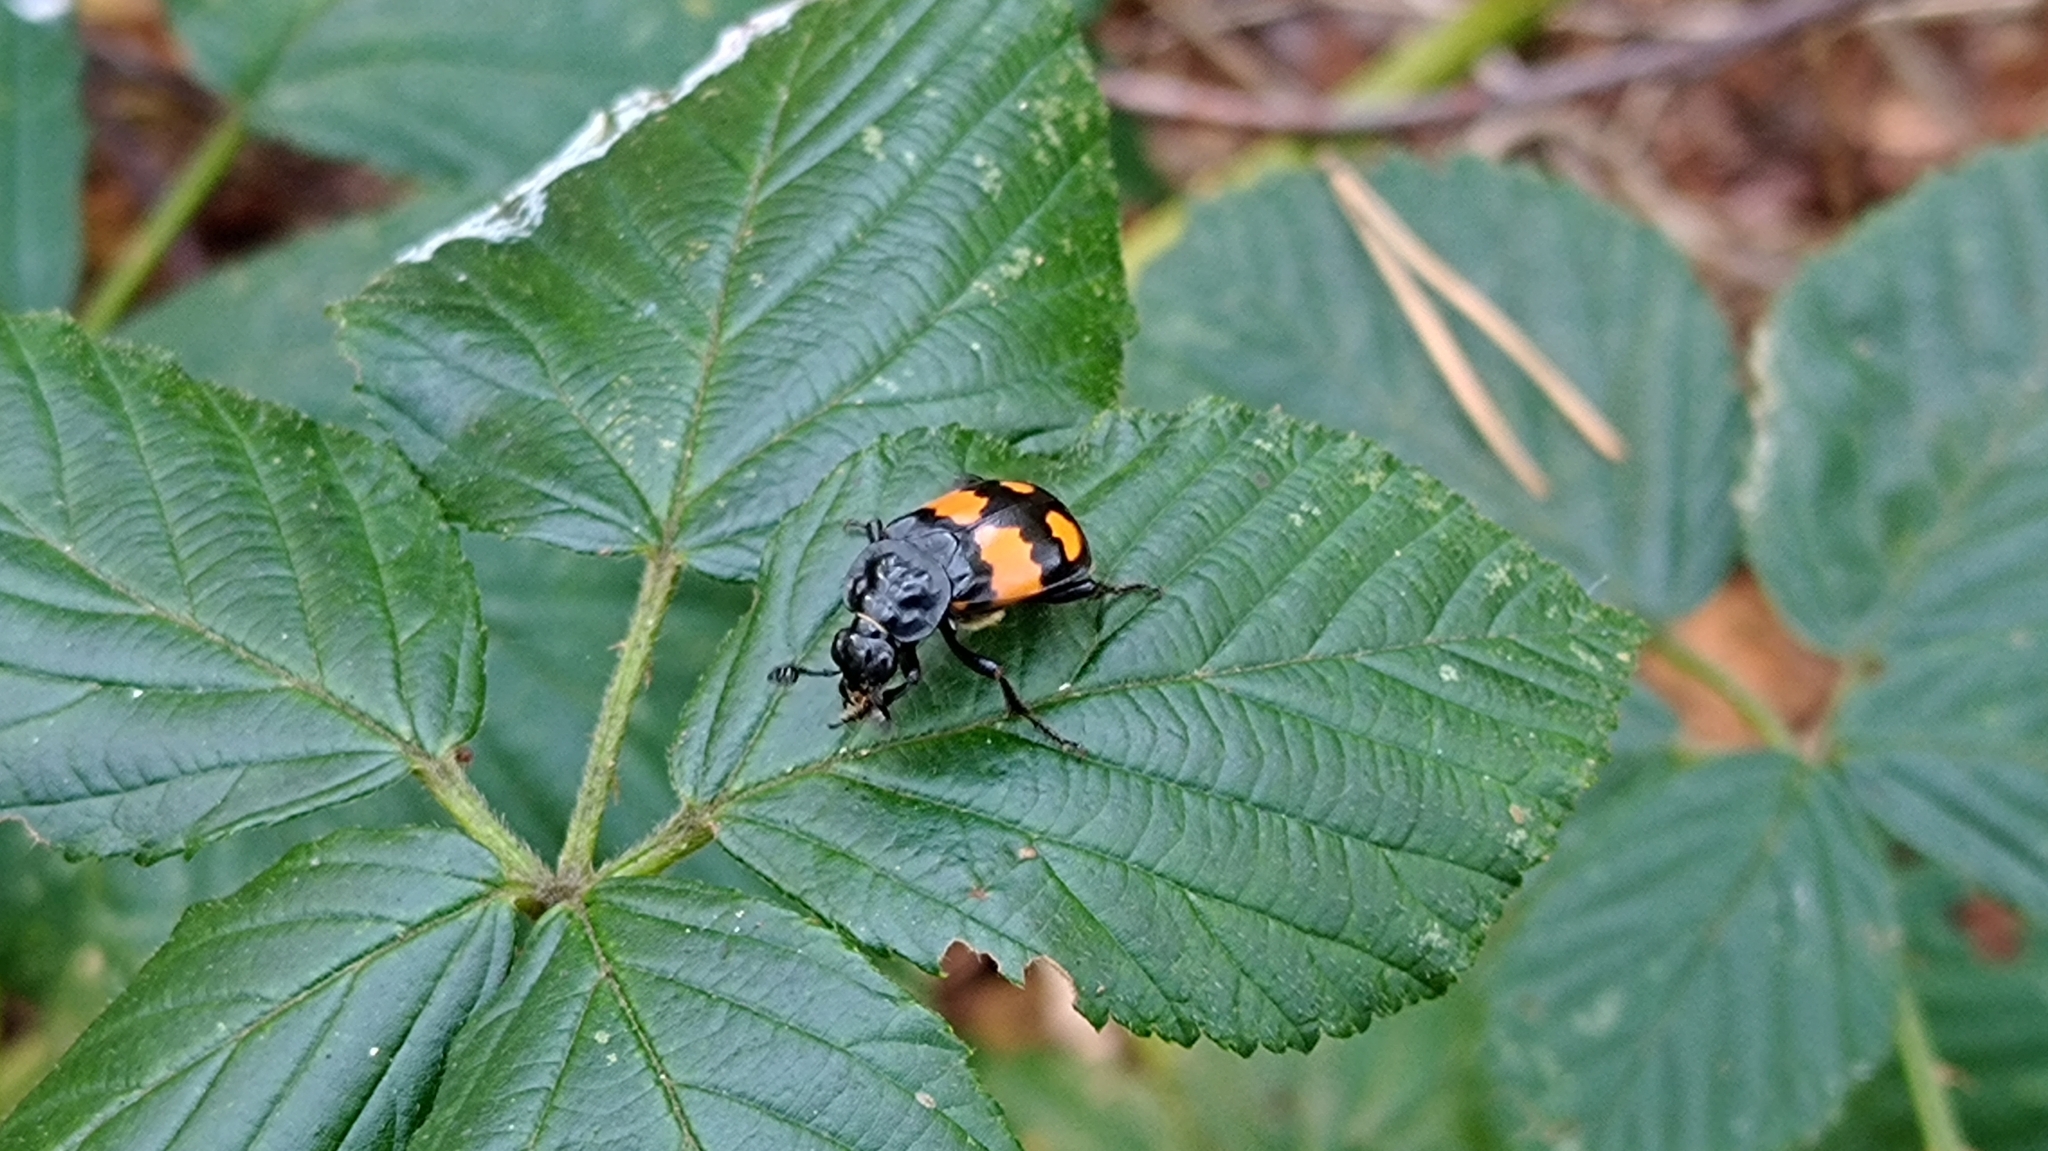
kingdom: Animalia
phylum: Arthropoda
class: Insecta
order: Coleoptera
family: Staphylinidae
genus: Nicrophorus
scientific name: Nicrophorus vespilloides
